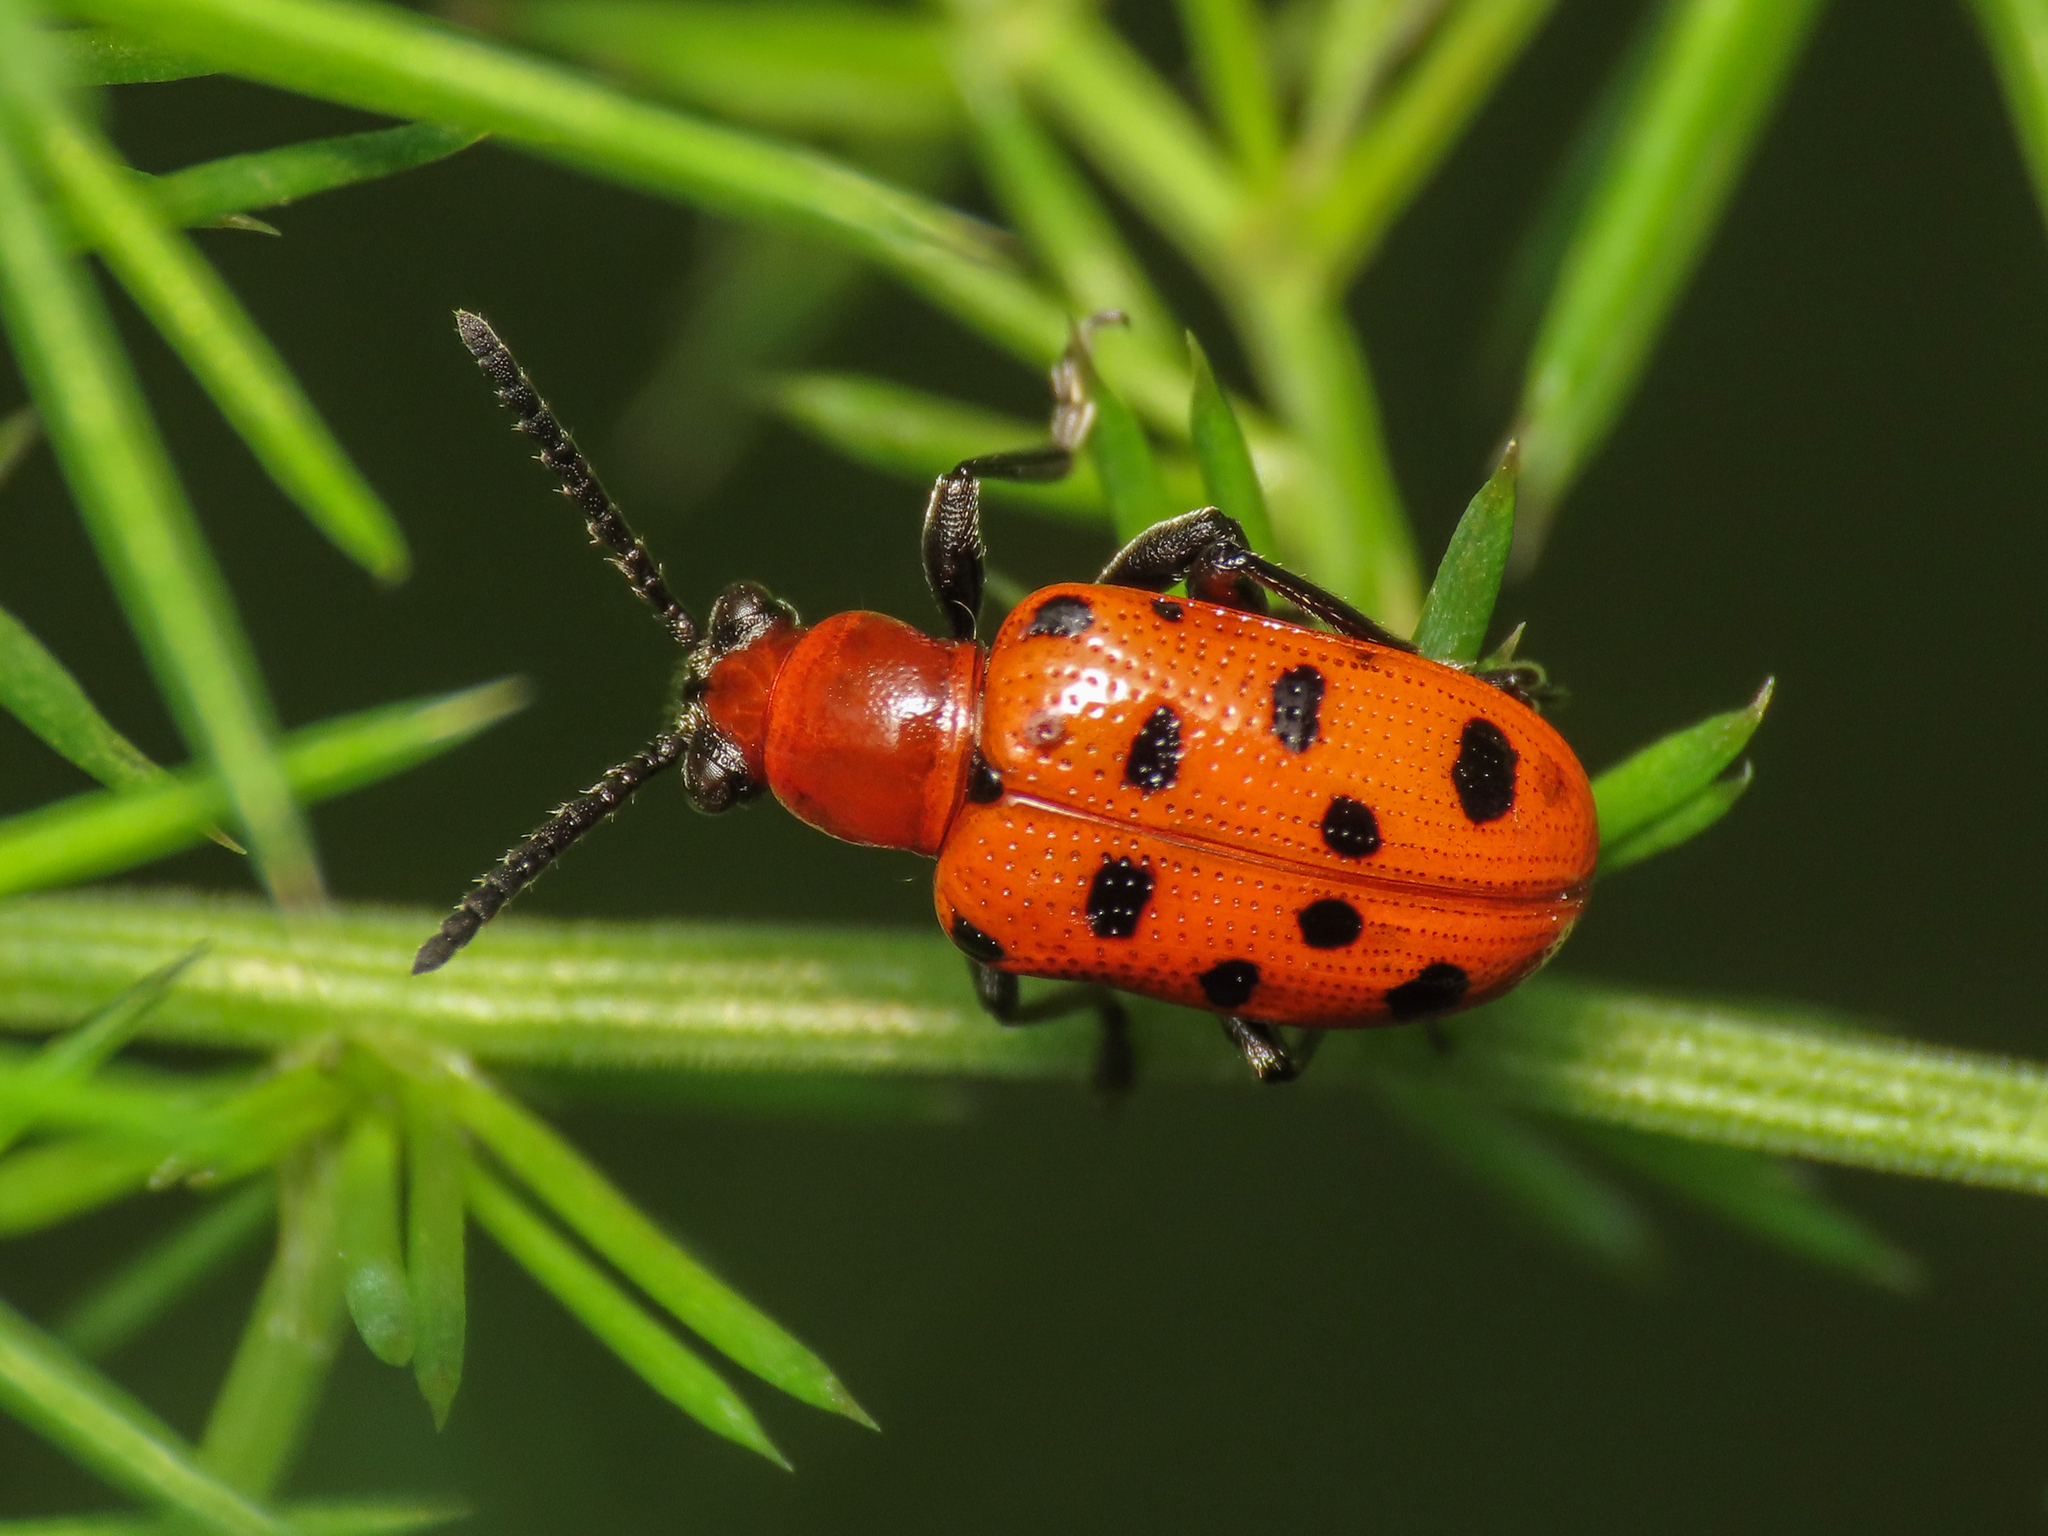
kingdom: Animalia
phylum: Arthropoda
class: Insecta
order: Coleoptera
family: Chrysomelidae
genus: Crioceris
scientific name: Crioceris duodecimpunctata
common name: Twelve-spotted asparagus beetle
